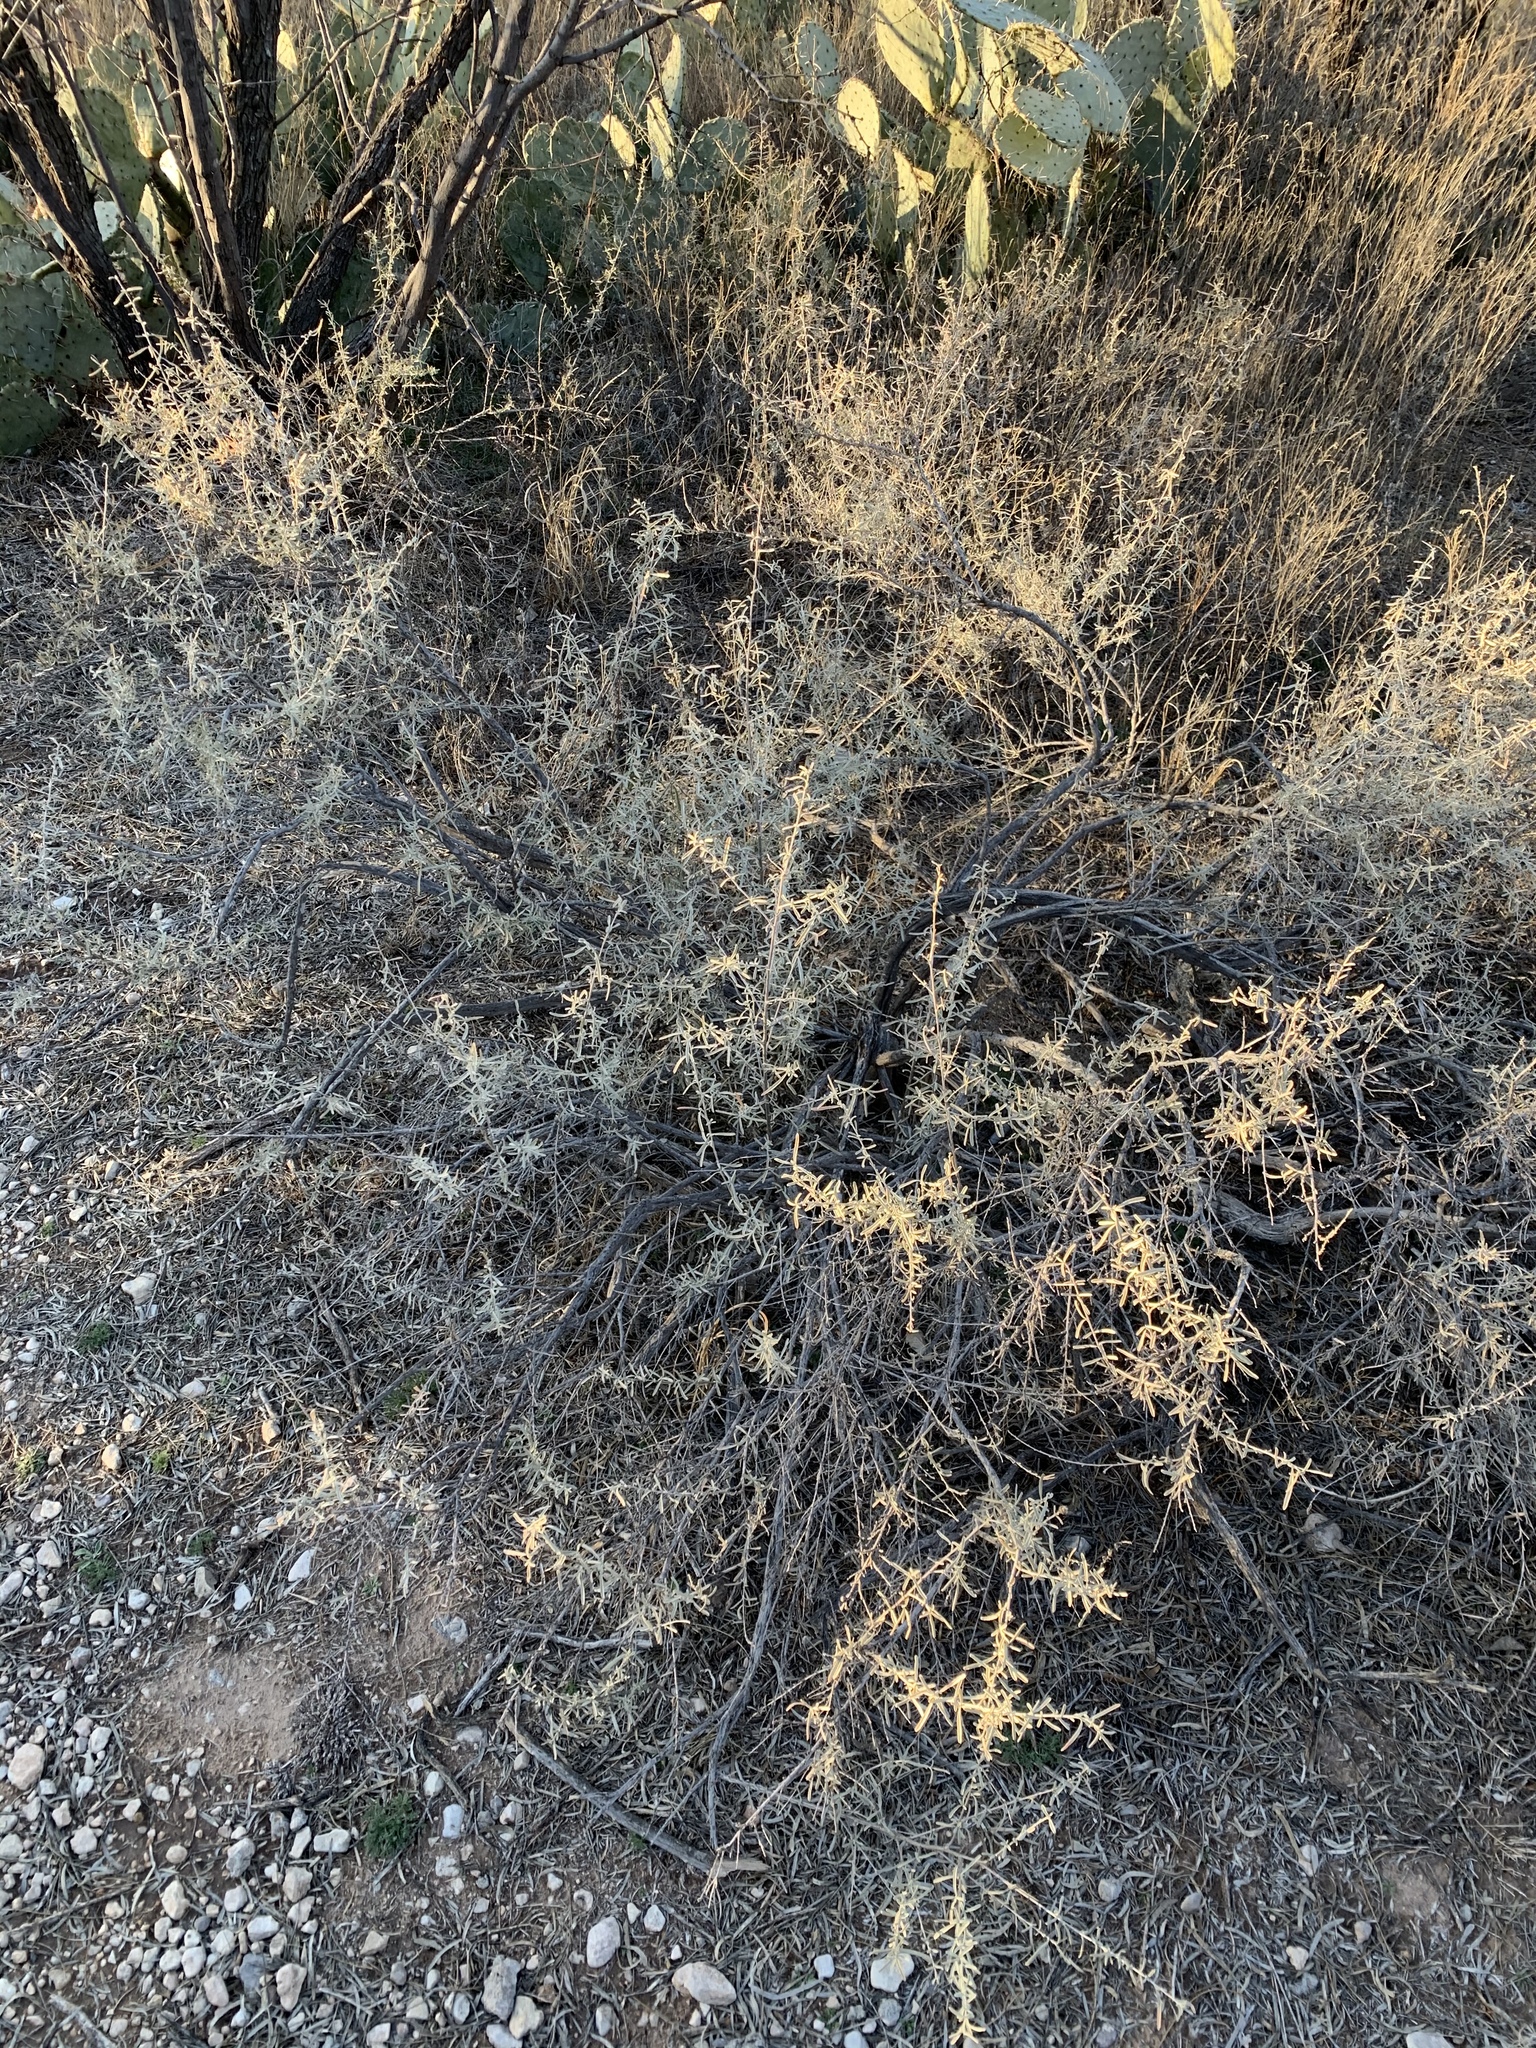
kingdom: Plantae
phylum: Tracheophyta
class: Magnoliopsida
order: Caryophyllales
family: Amaranthaceae
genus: Atriplex
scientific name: Atriplex canescens
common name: Four-wing saltbush
